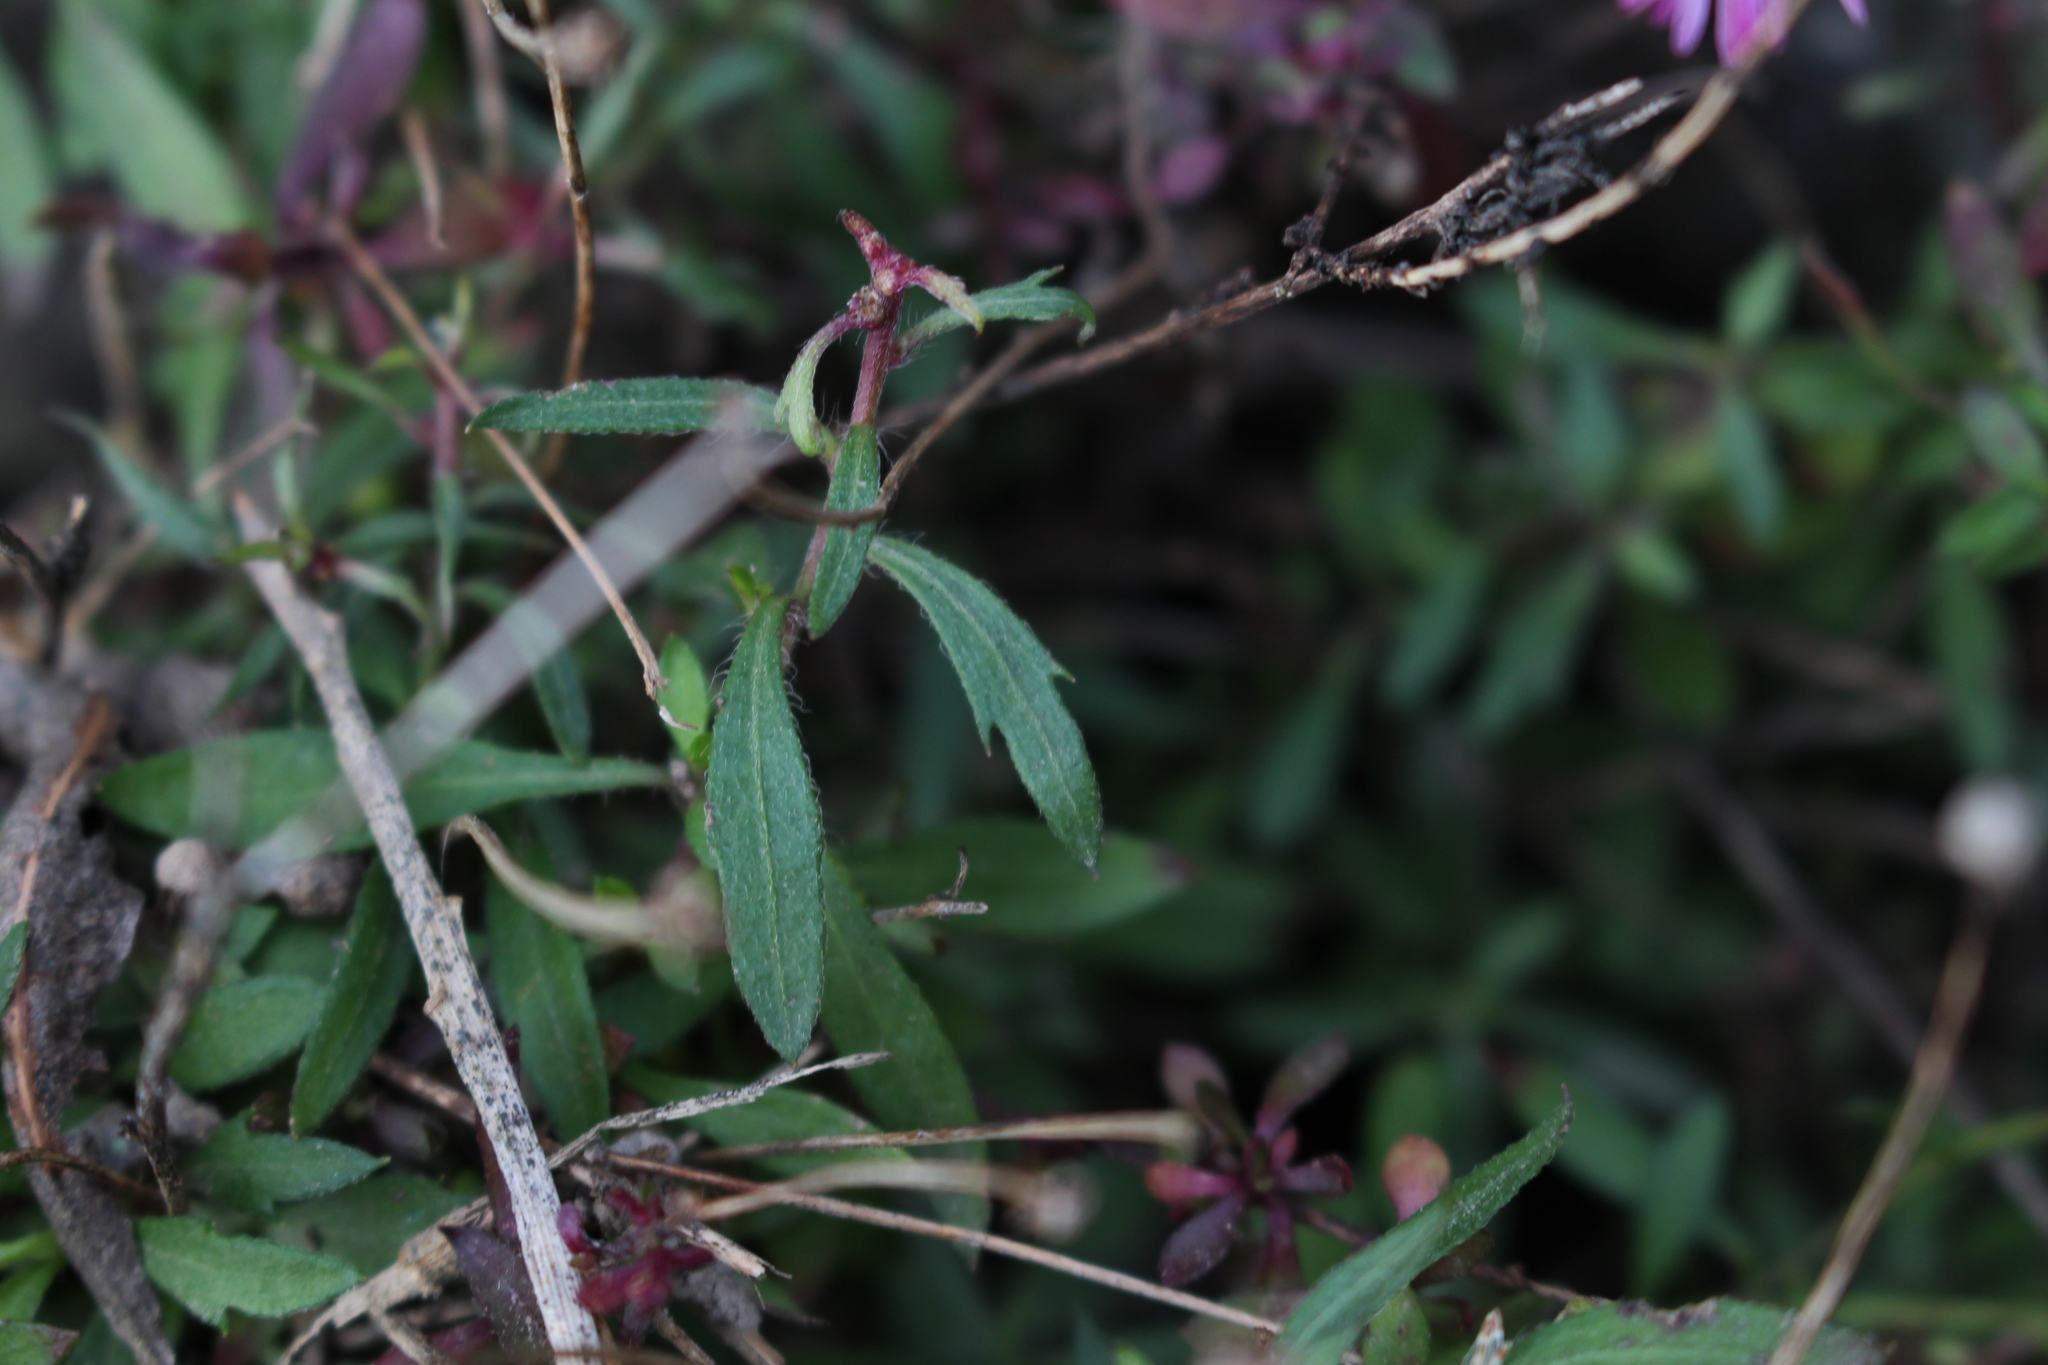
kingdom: Plantae
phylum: Tracheophyta
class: Magnoliopsida
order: Asterales
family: Asteraceae
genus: Erigeron
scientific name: Erigeron karvinskianus
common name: Mexican fleabane
